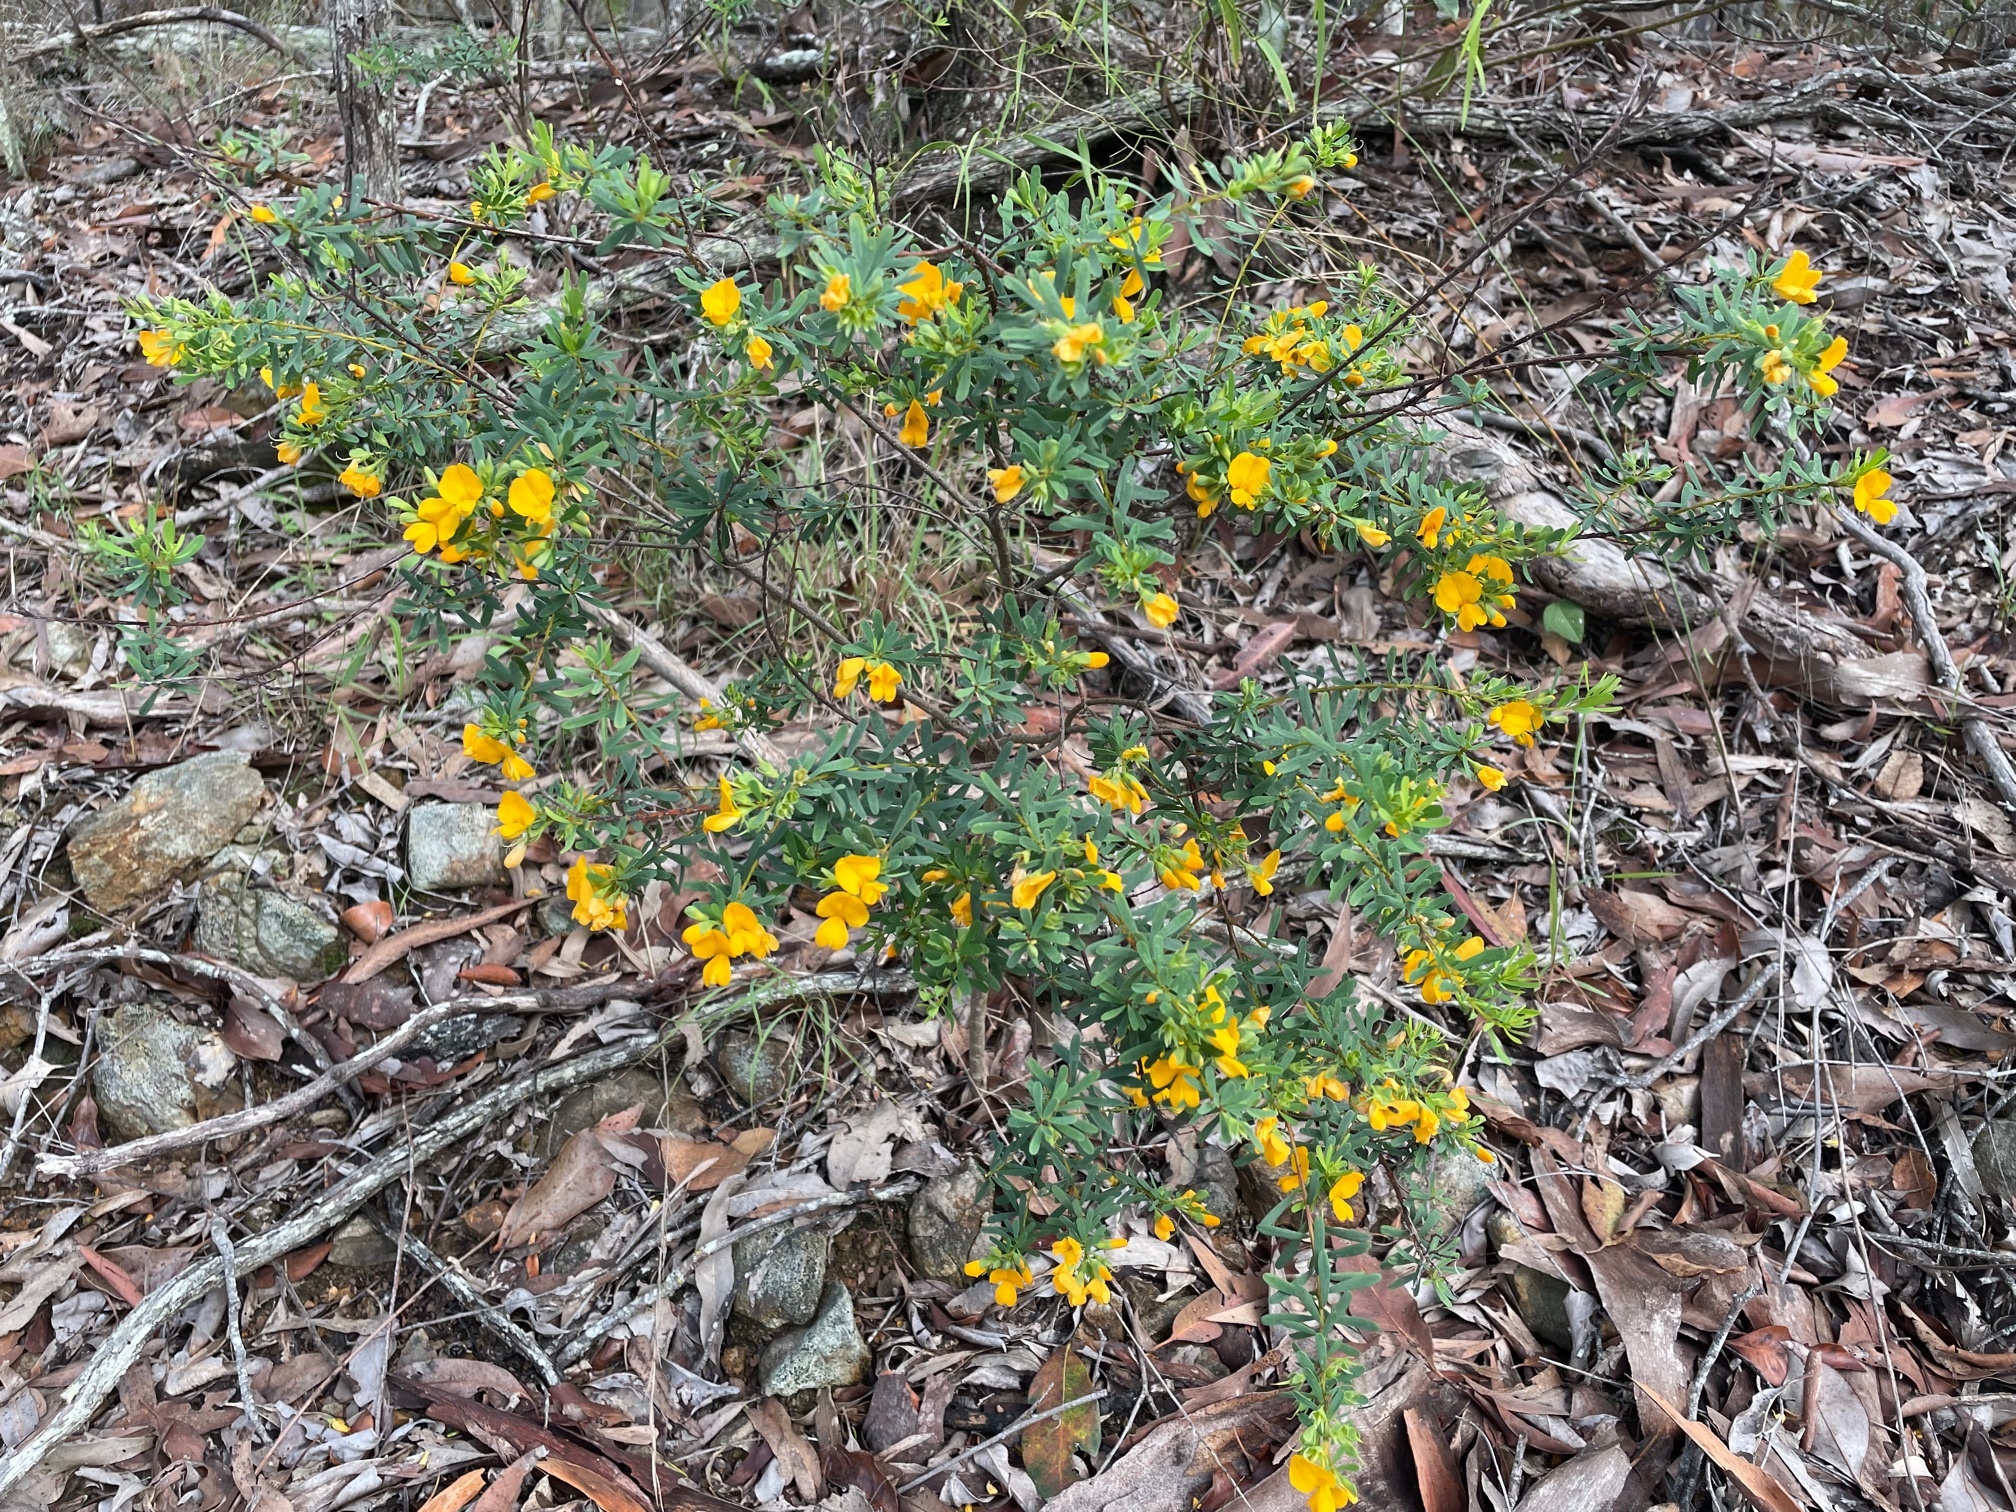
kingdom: Plantae
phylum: Tracheophyta
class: Magnoliopsida
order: Fabales
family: Fabaceae
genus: Pultenaea
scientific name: Pultenaea euchila
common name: Large-flower bush-pea
